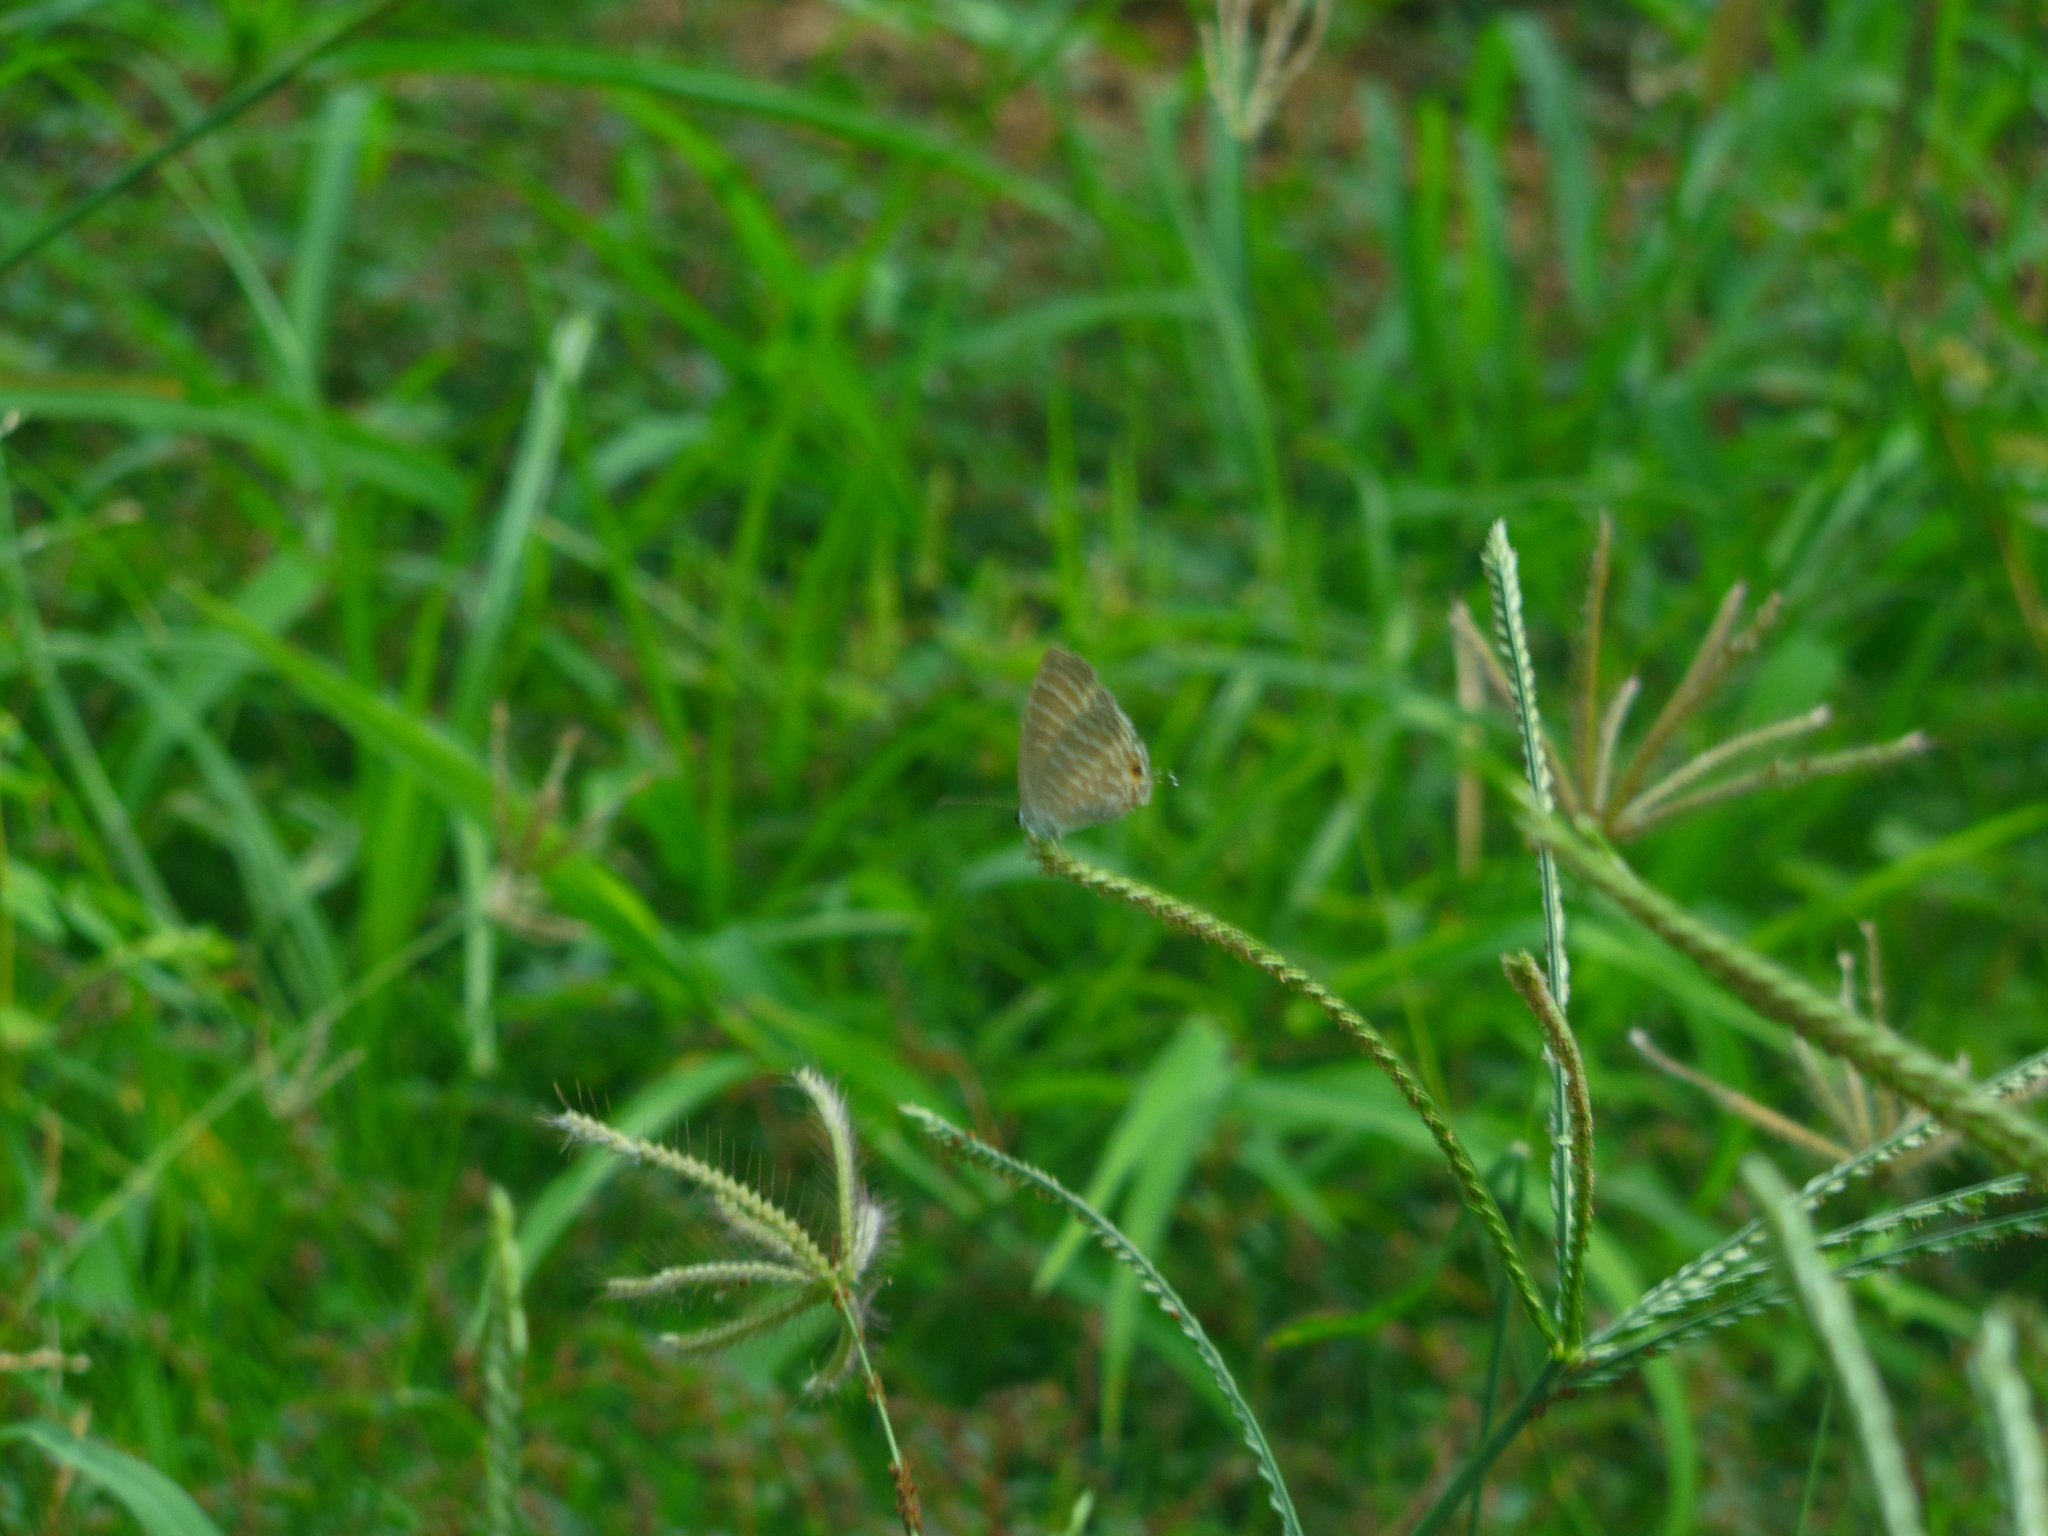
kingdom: Animalia
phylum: Arthropoda
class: Insecta
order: Lepidoptera
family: Lycaenidae
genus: Jamides
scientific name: Jamides celeno
